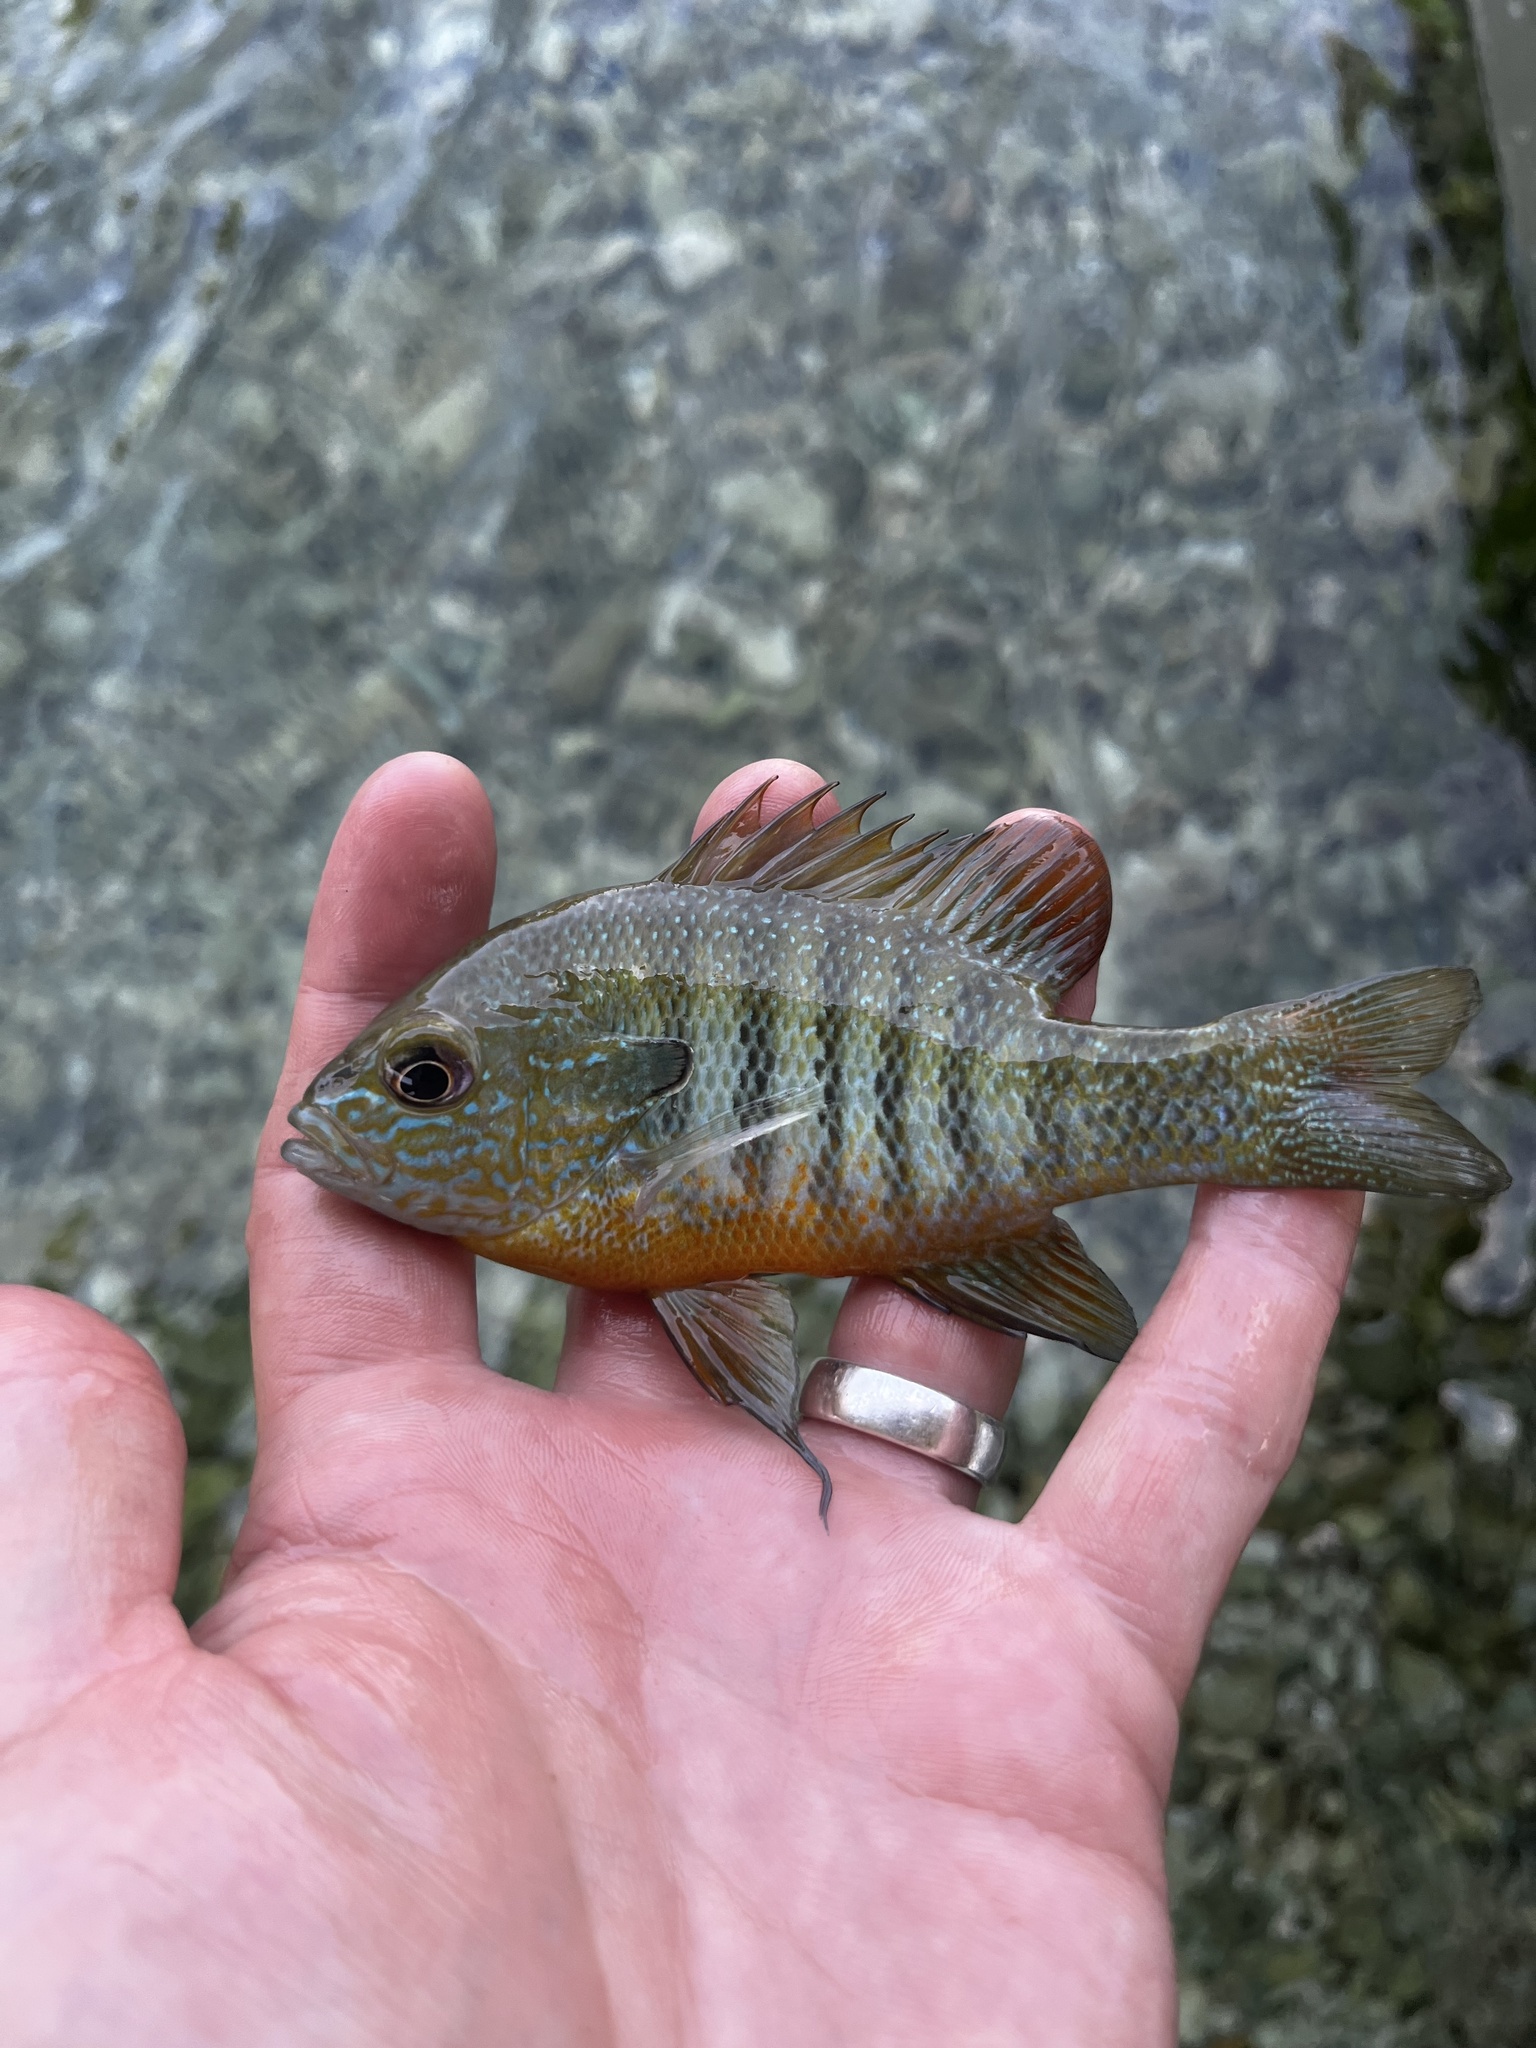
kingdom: Animalia
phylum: Chordata
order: Perciformes
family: Centrarchidae
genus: Lepomis
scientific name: Lepomis aquilensis
